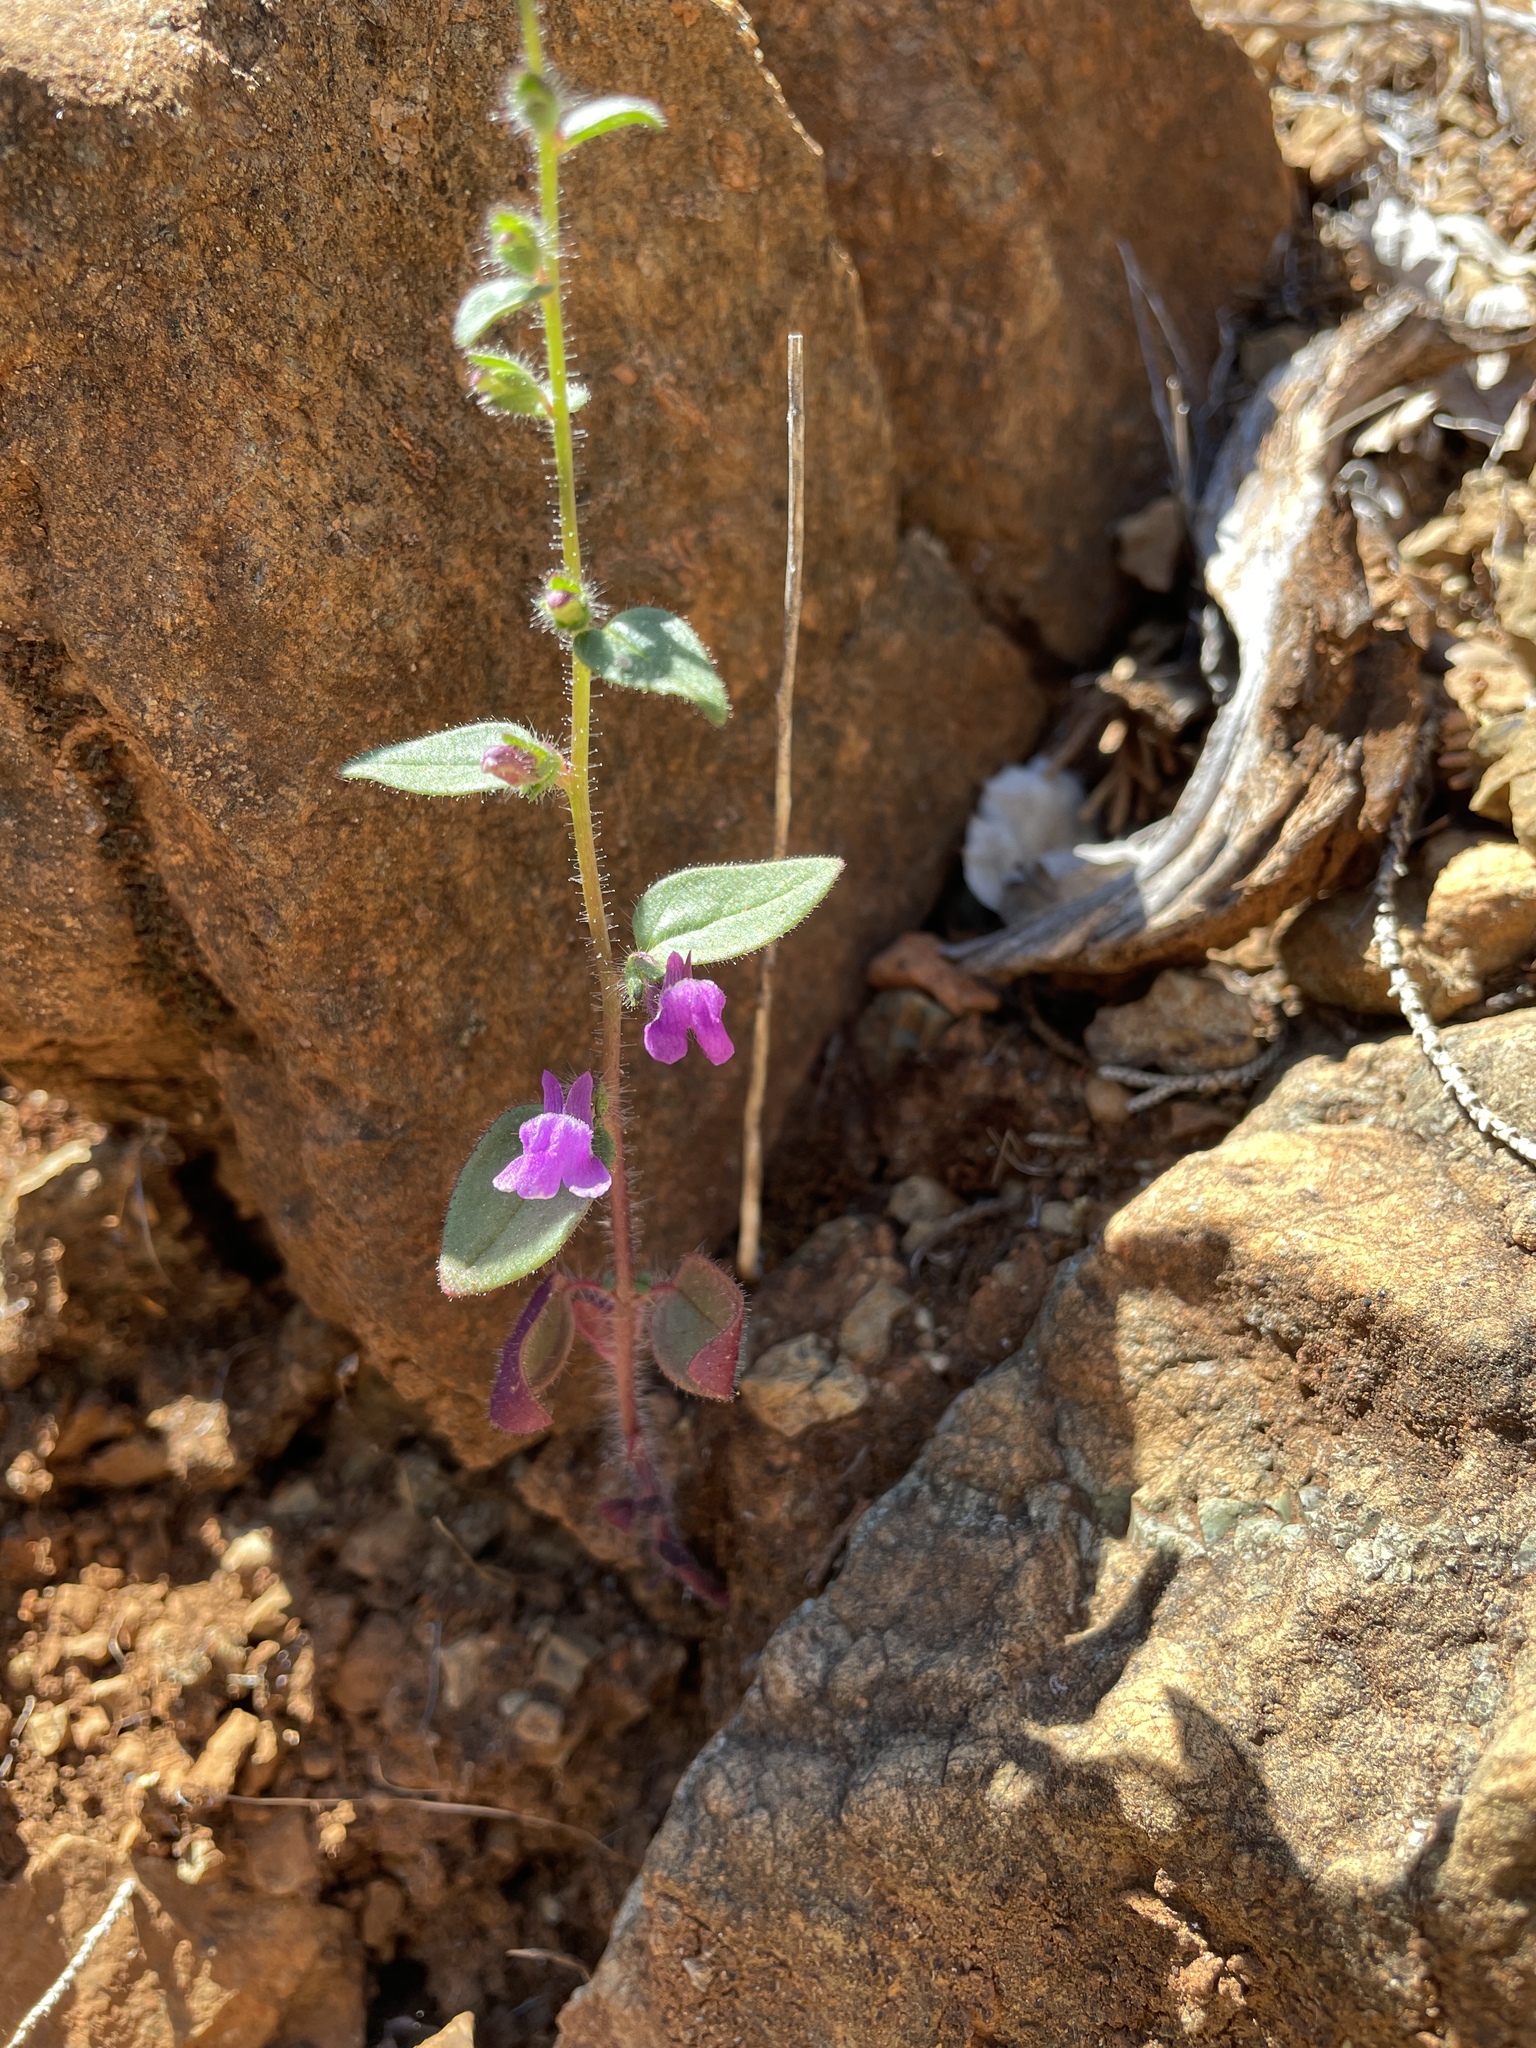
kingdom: Plantae
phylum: Tracheophyta
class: Magnoliopsida
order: Lamiales
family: Plantaginaceae
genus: Sairocarpus
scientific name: Sairocarpus vexillocalyculatus
